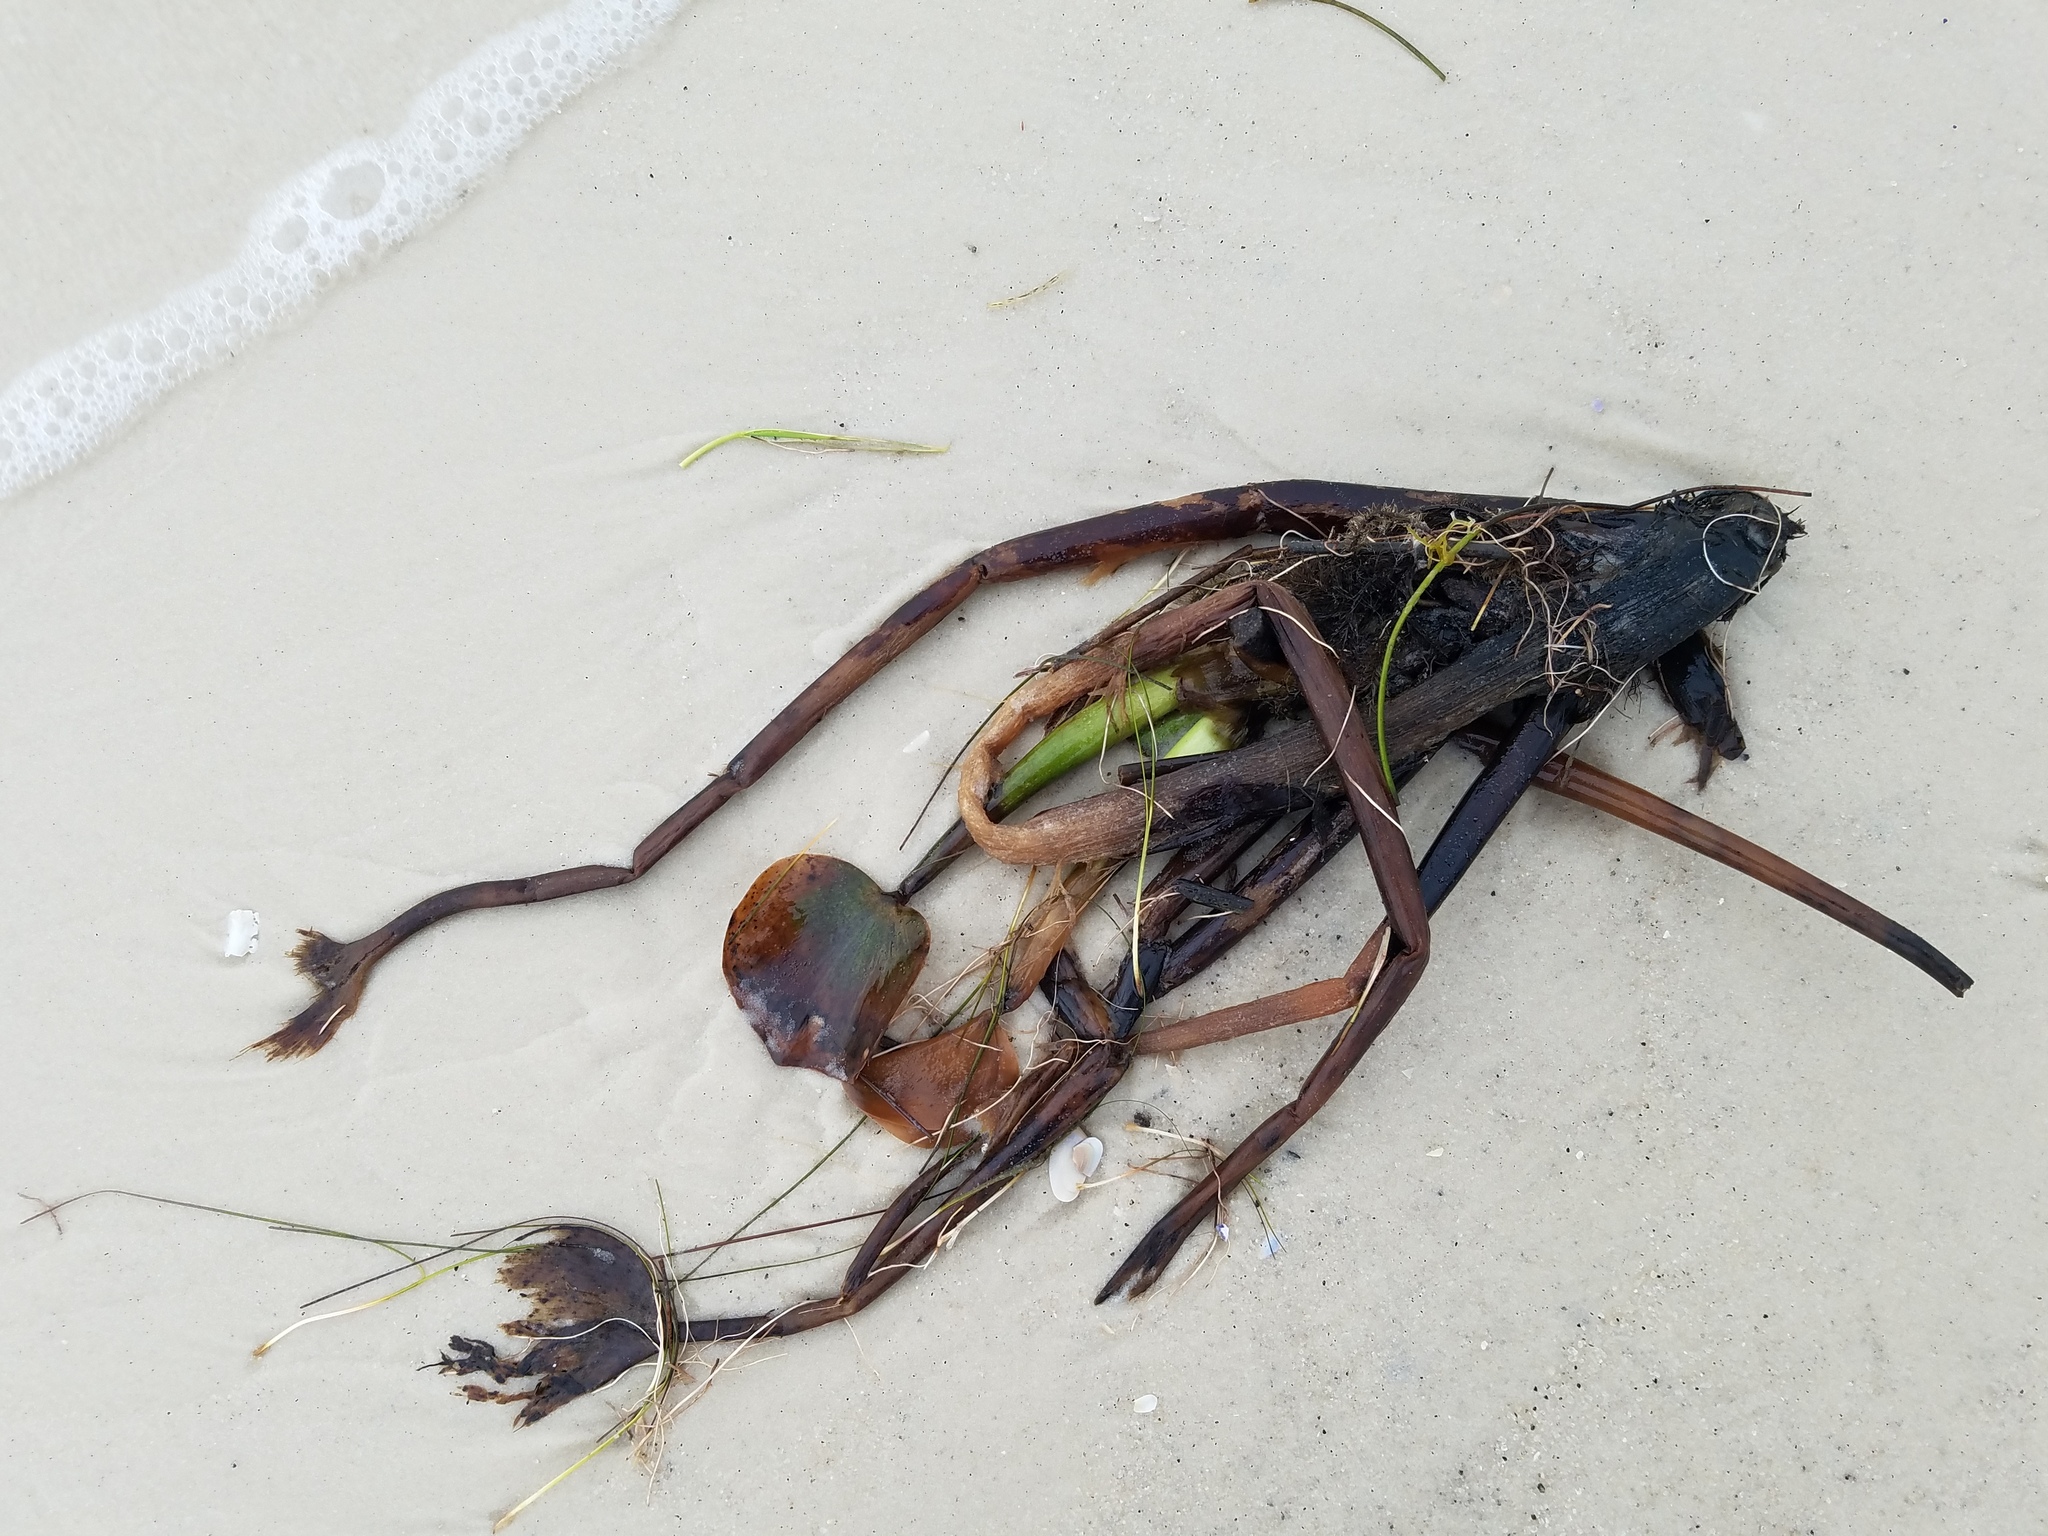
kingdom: Plantae
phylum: Tracheophyta
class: Liliopsida
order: Commelinales
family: Pontederiaceae
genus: Pontederia
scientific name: Pontederia crassipes
